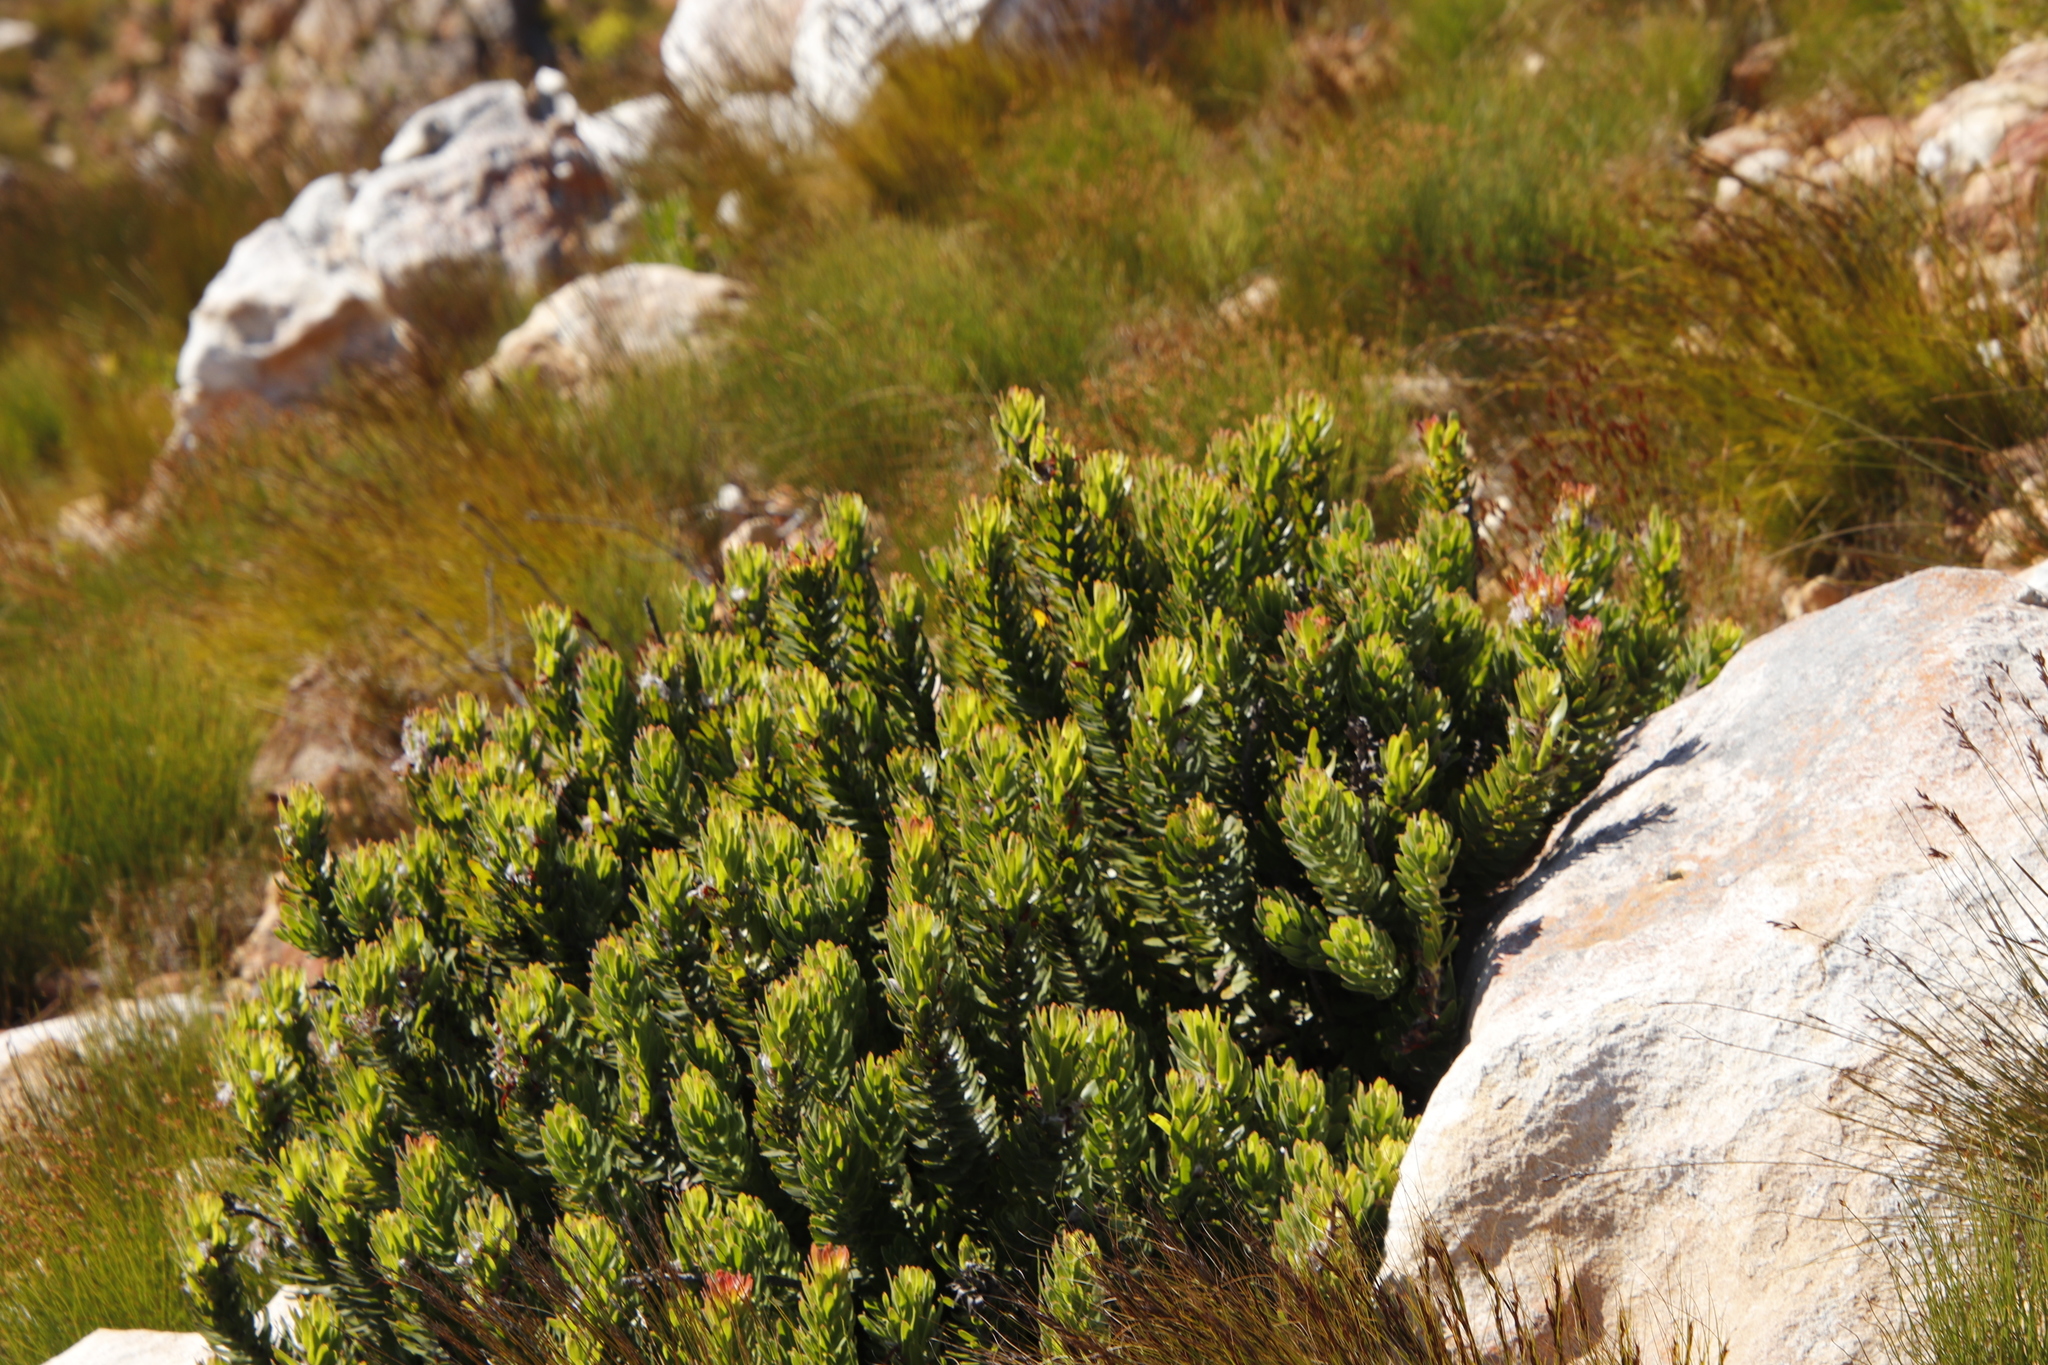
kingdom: Plantae
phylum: Tracheophyta
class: Magnoliopsida
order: Proteales
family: Proteaceae
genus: Mimetes
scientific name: Mimetes cucullatus
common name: Common pagoda
